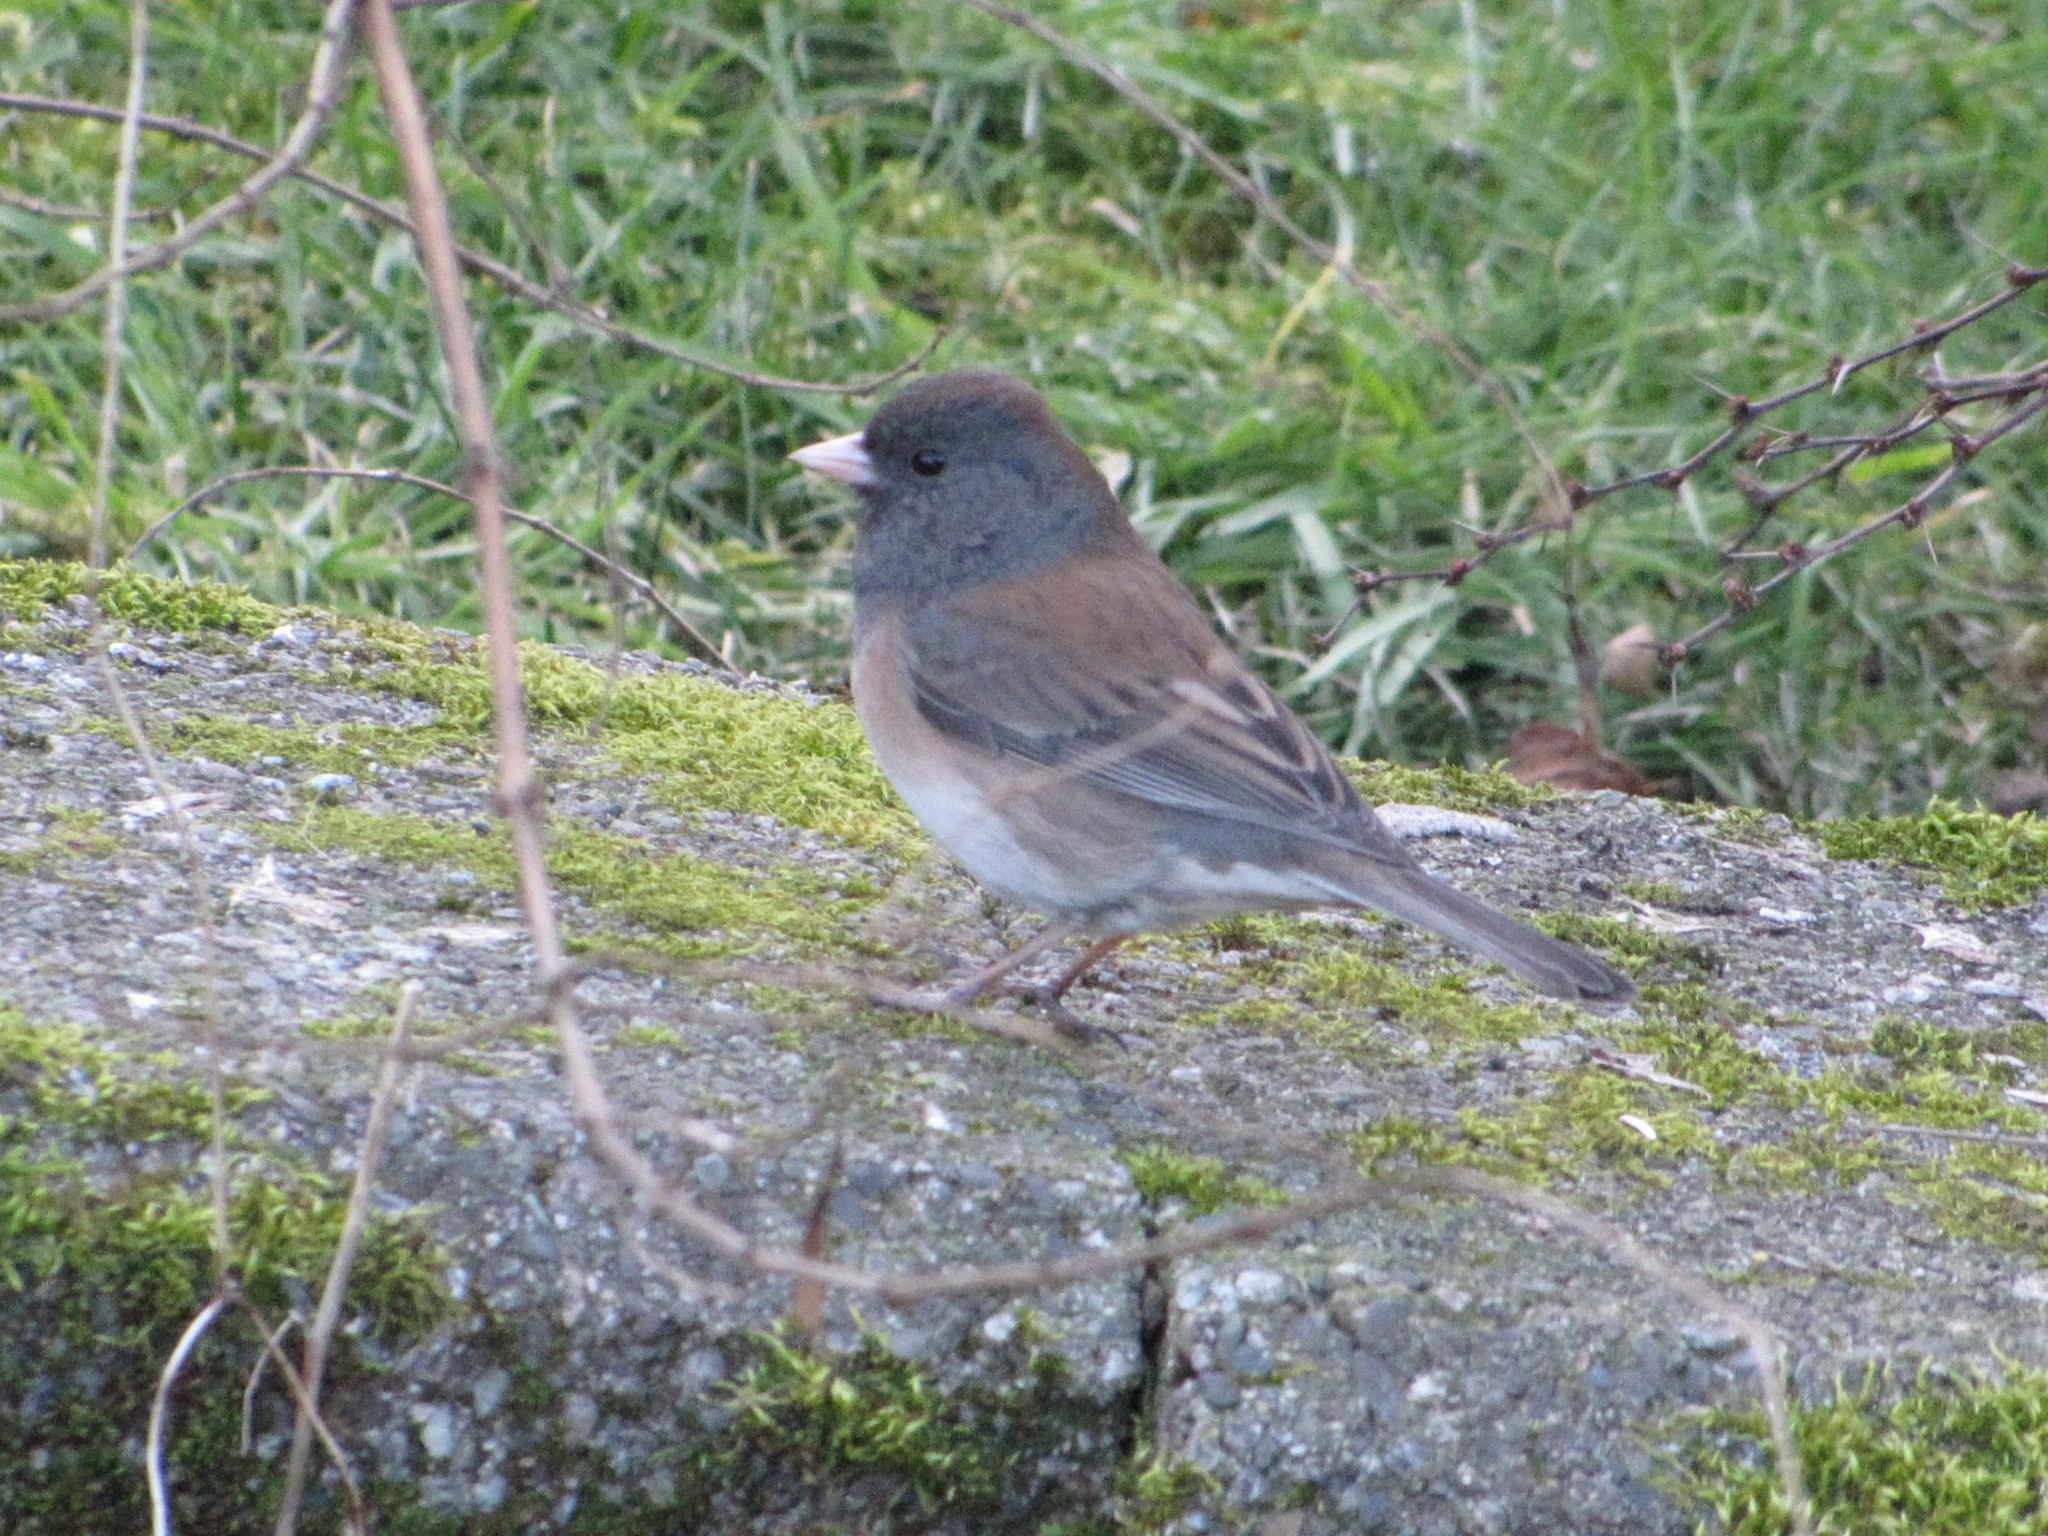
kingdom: Animalia
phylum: Chordata
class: Aves
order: Passeriformes
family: Passerellidae
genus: Junco
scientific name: Junco hyemalis
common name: Dark-eyed junco
